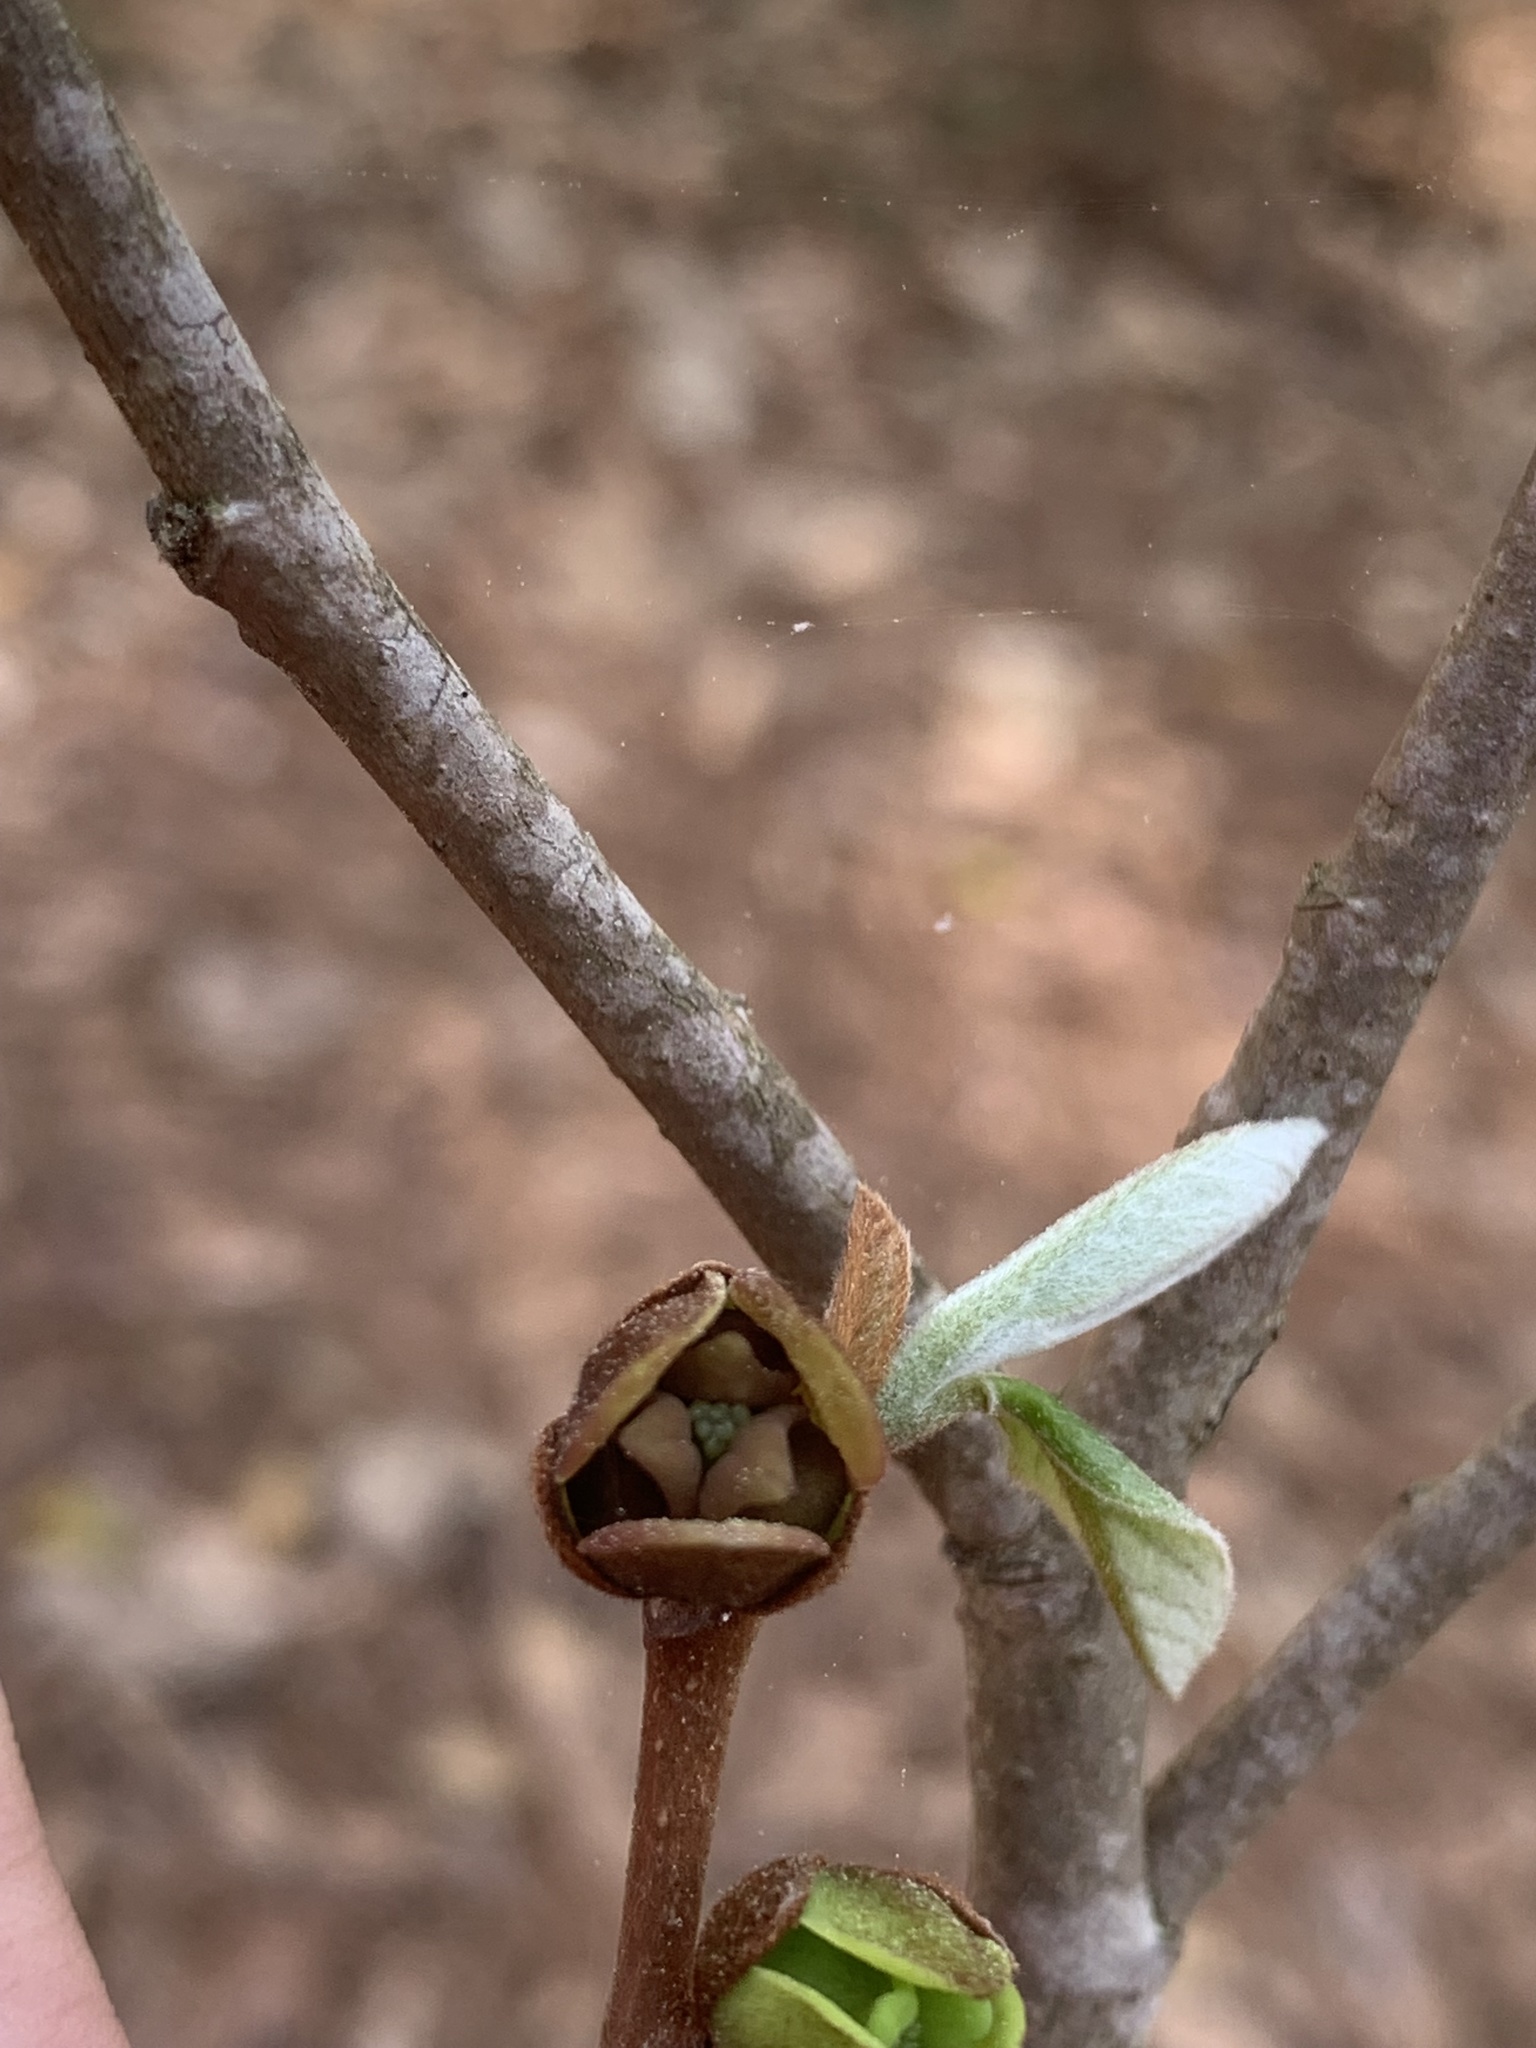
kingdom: Plantae
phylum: Tracheophyta
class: Magnoliopsida
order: Magnoliales
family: Annonaceae
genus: Asimina
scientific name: Asimina parviflora
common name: Dwarf pawpaw
